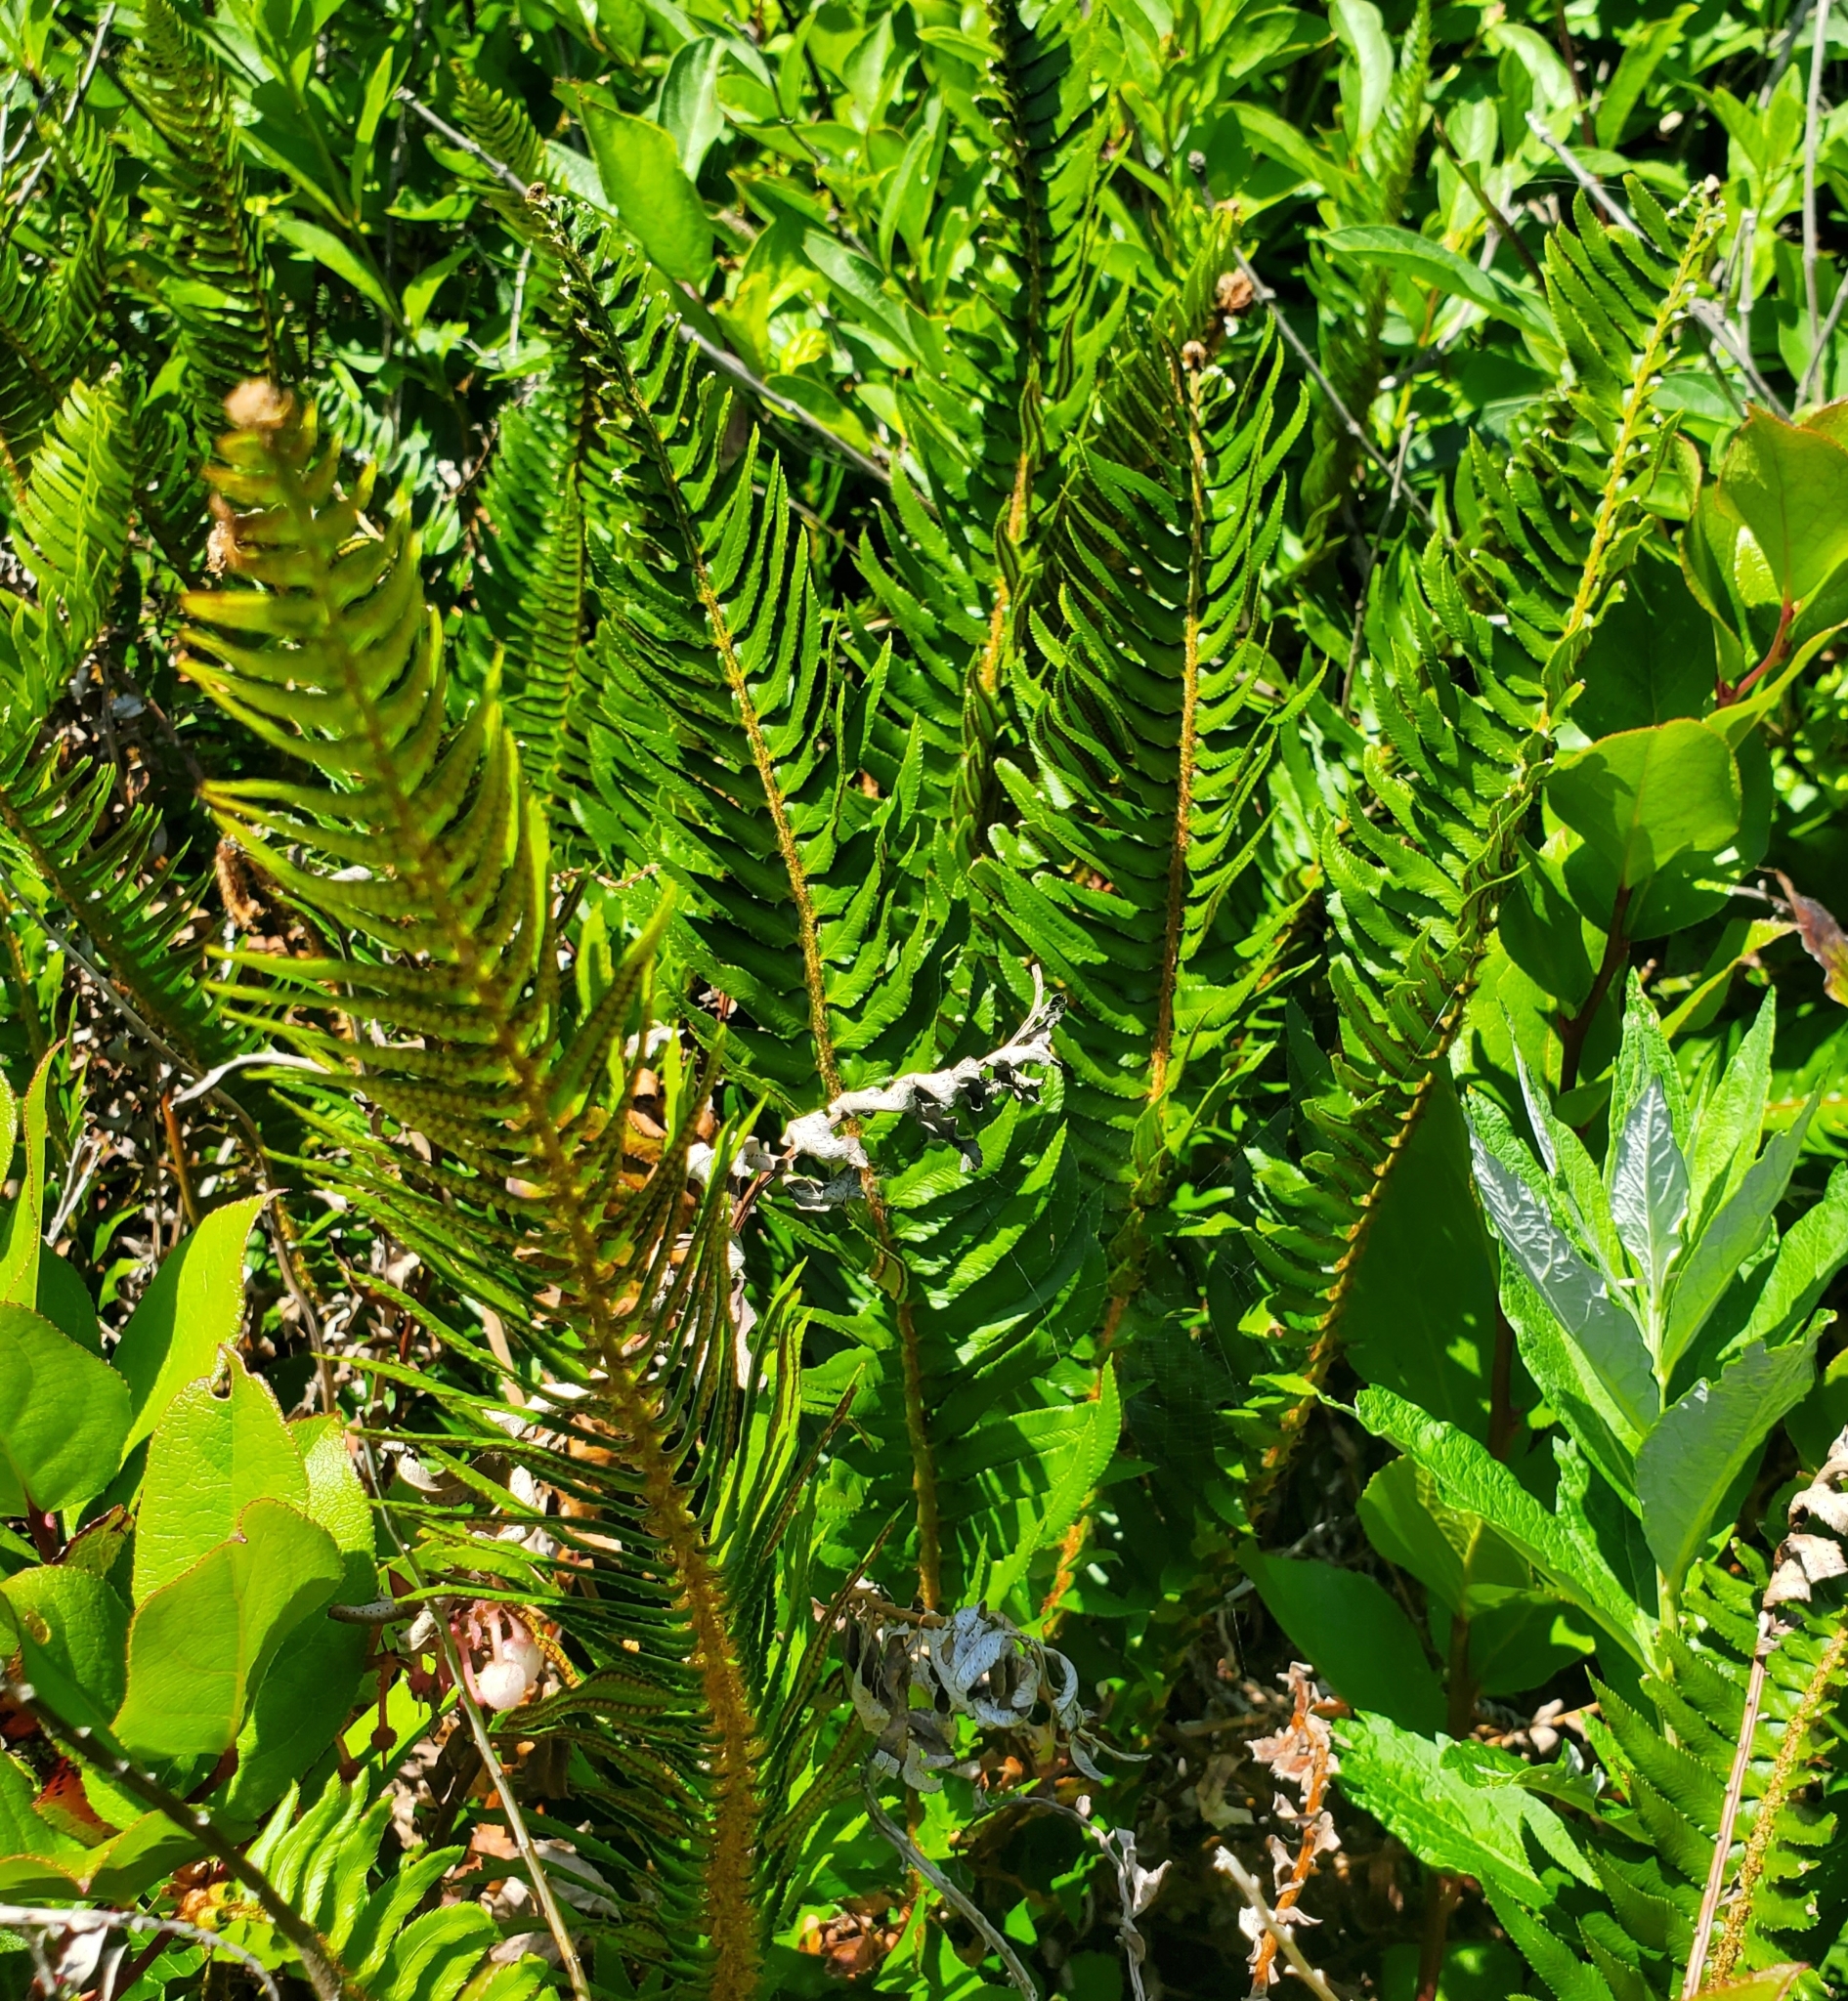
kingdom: Plantae
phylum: Tracheophyta
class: Polypodiopsida
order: Polypodiales
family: Dryopteridaceae
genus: Polystichum
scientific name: Polystichum munitum
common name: Western sword-fern
